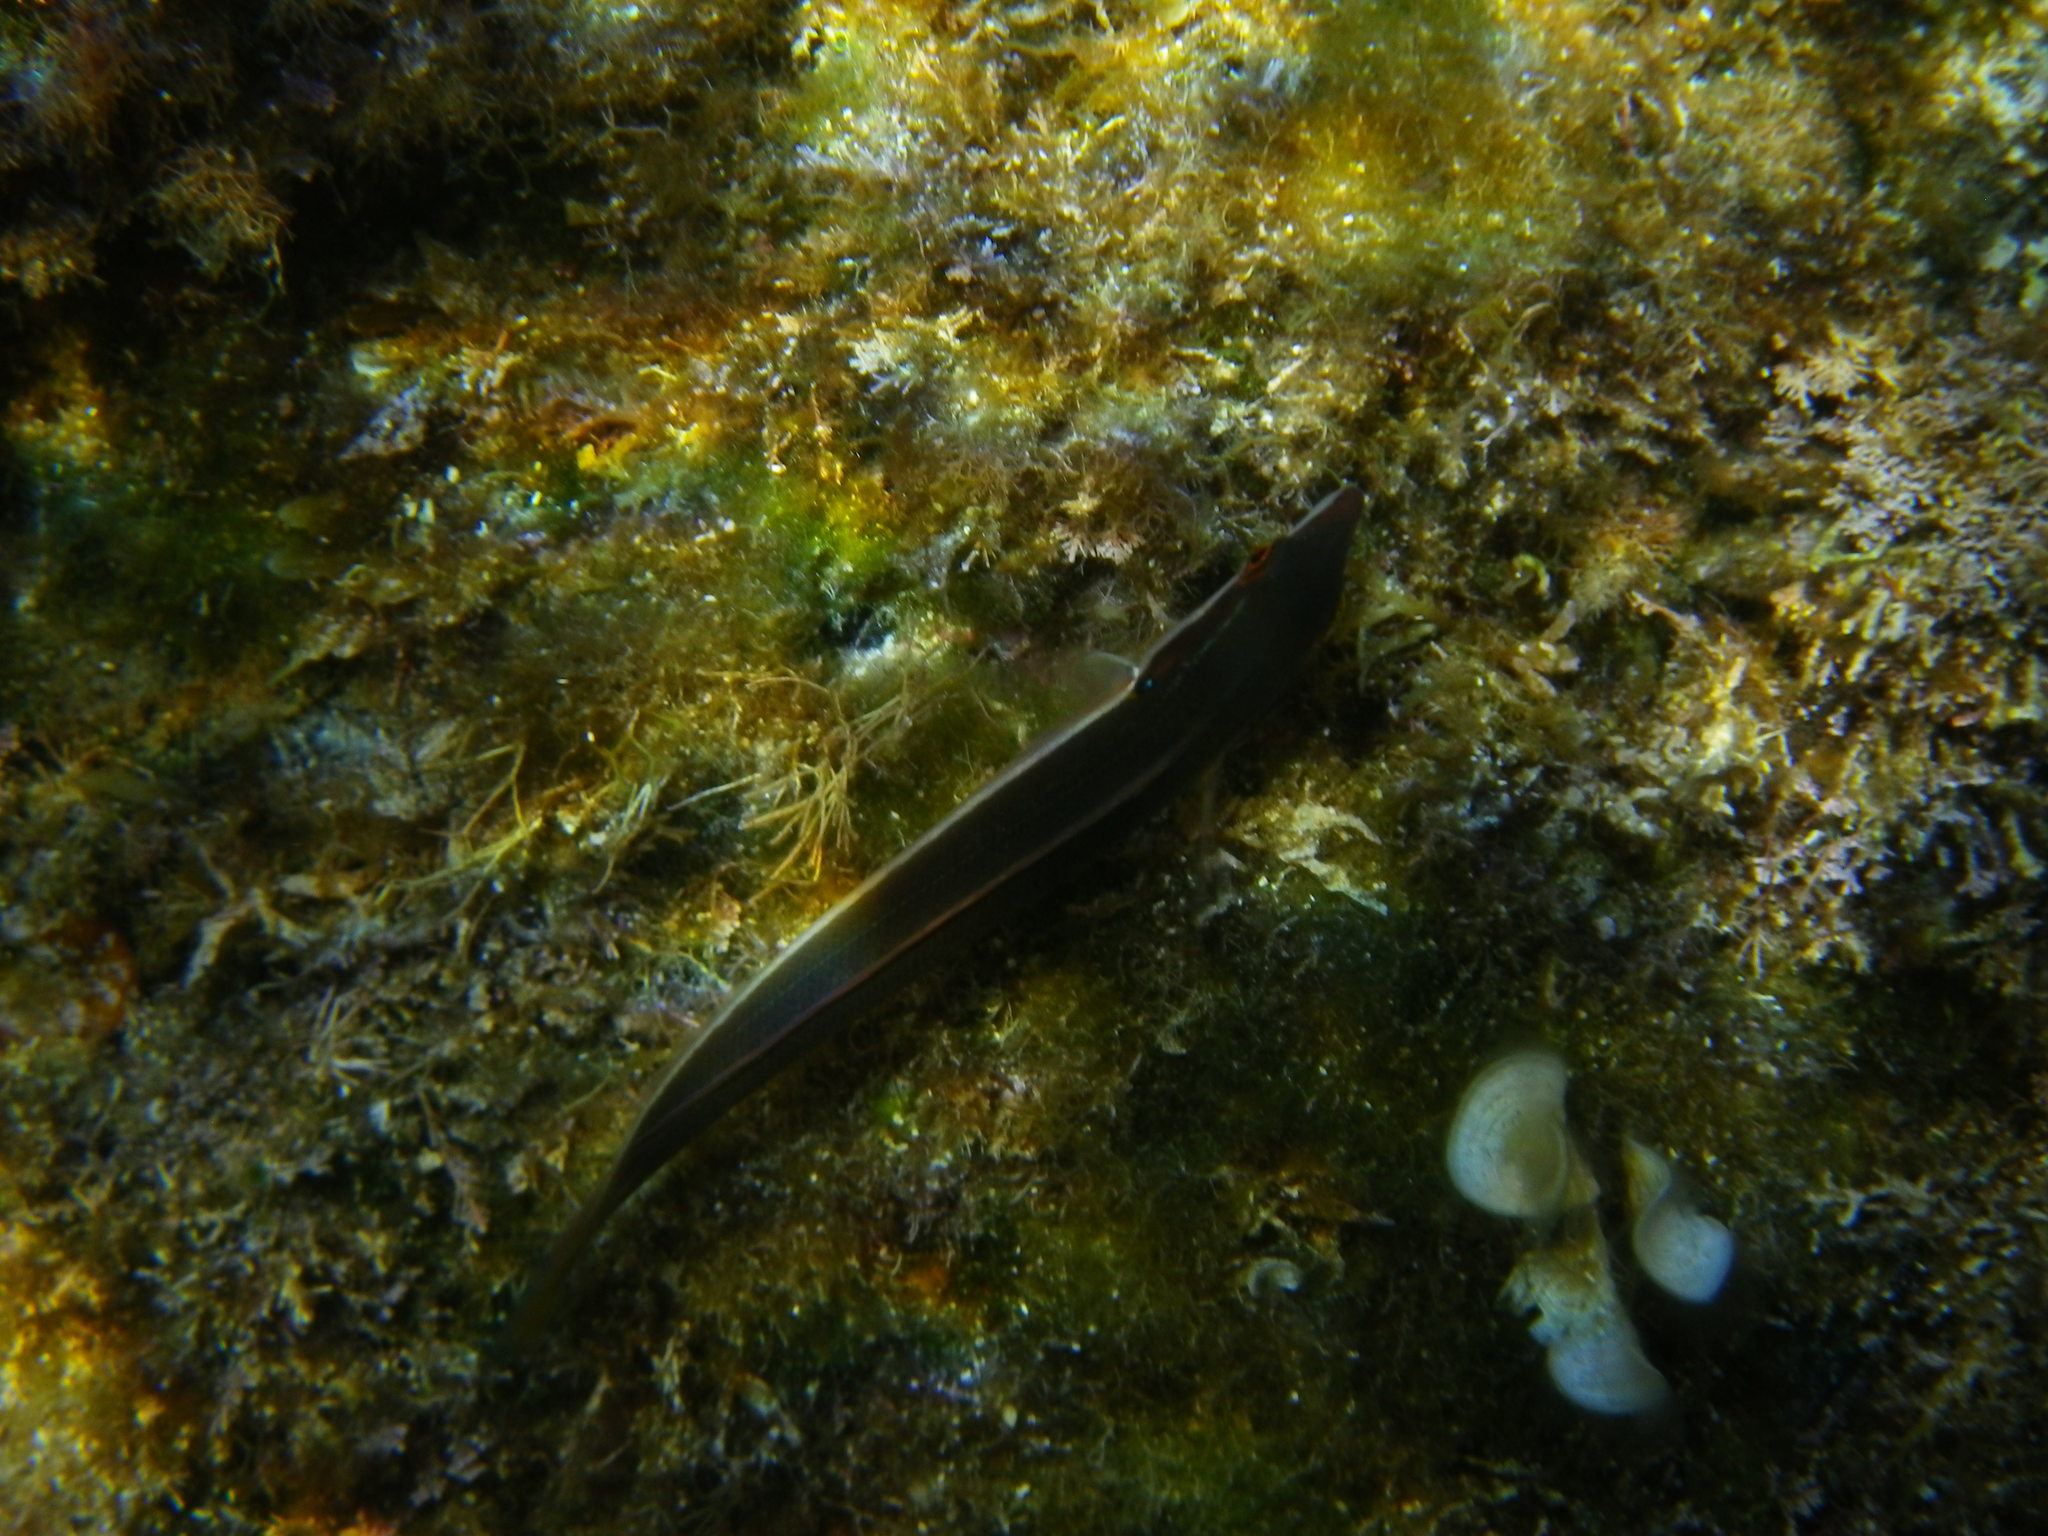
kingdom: Animalia
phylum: Chordata
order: Perciformes
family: Labridae
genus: Coris
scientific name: Coris julis
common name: Rainbow wrasse
